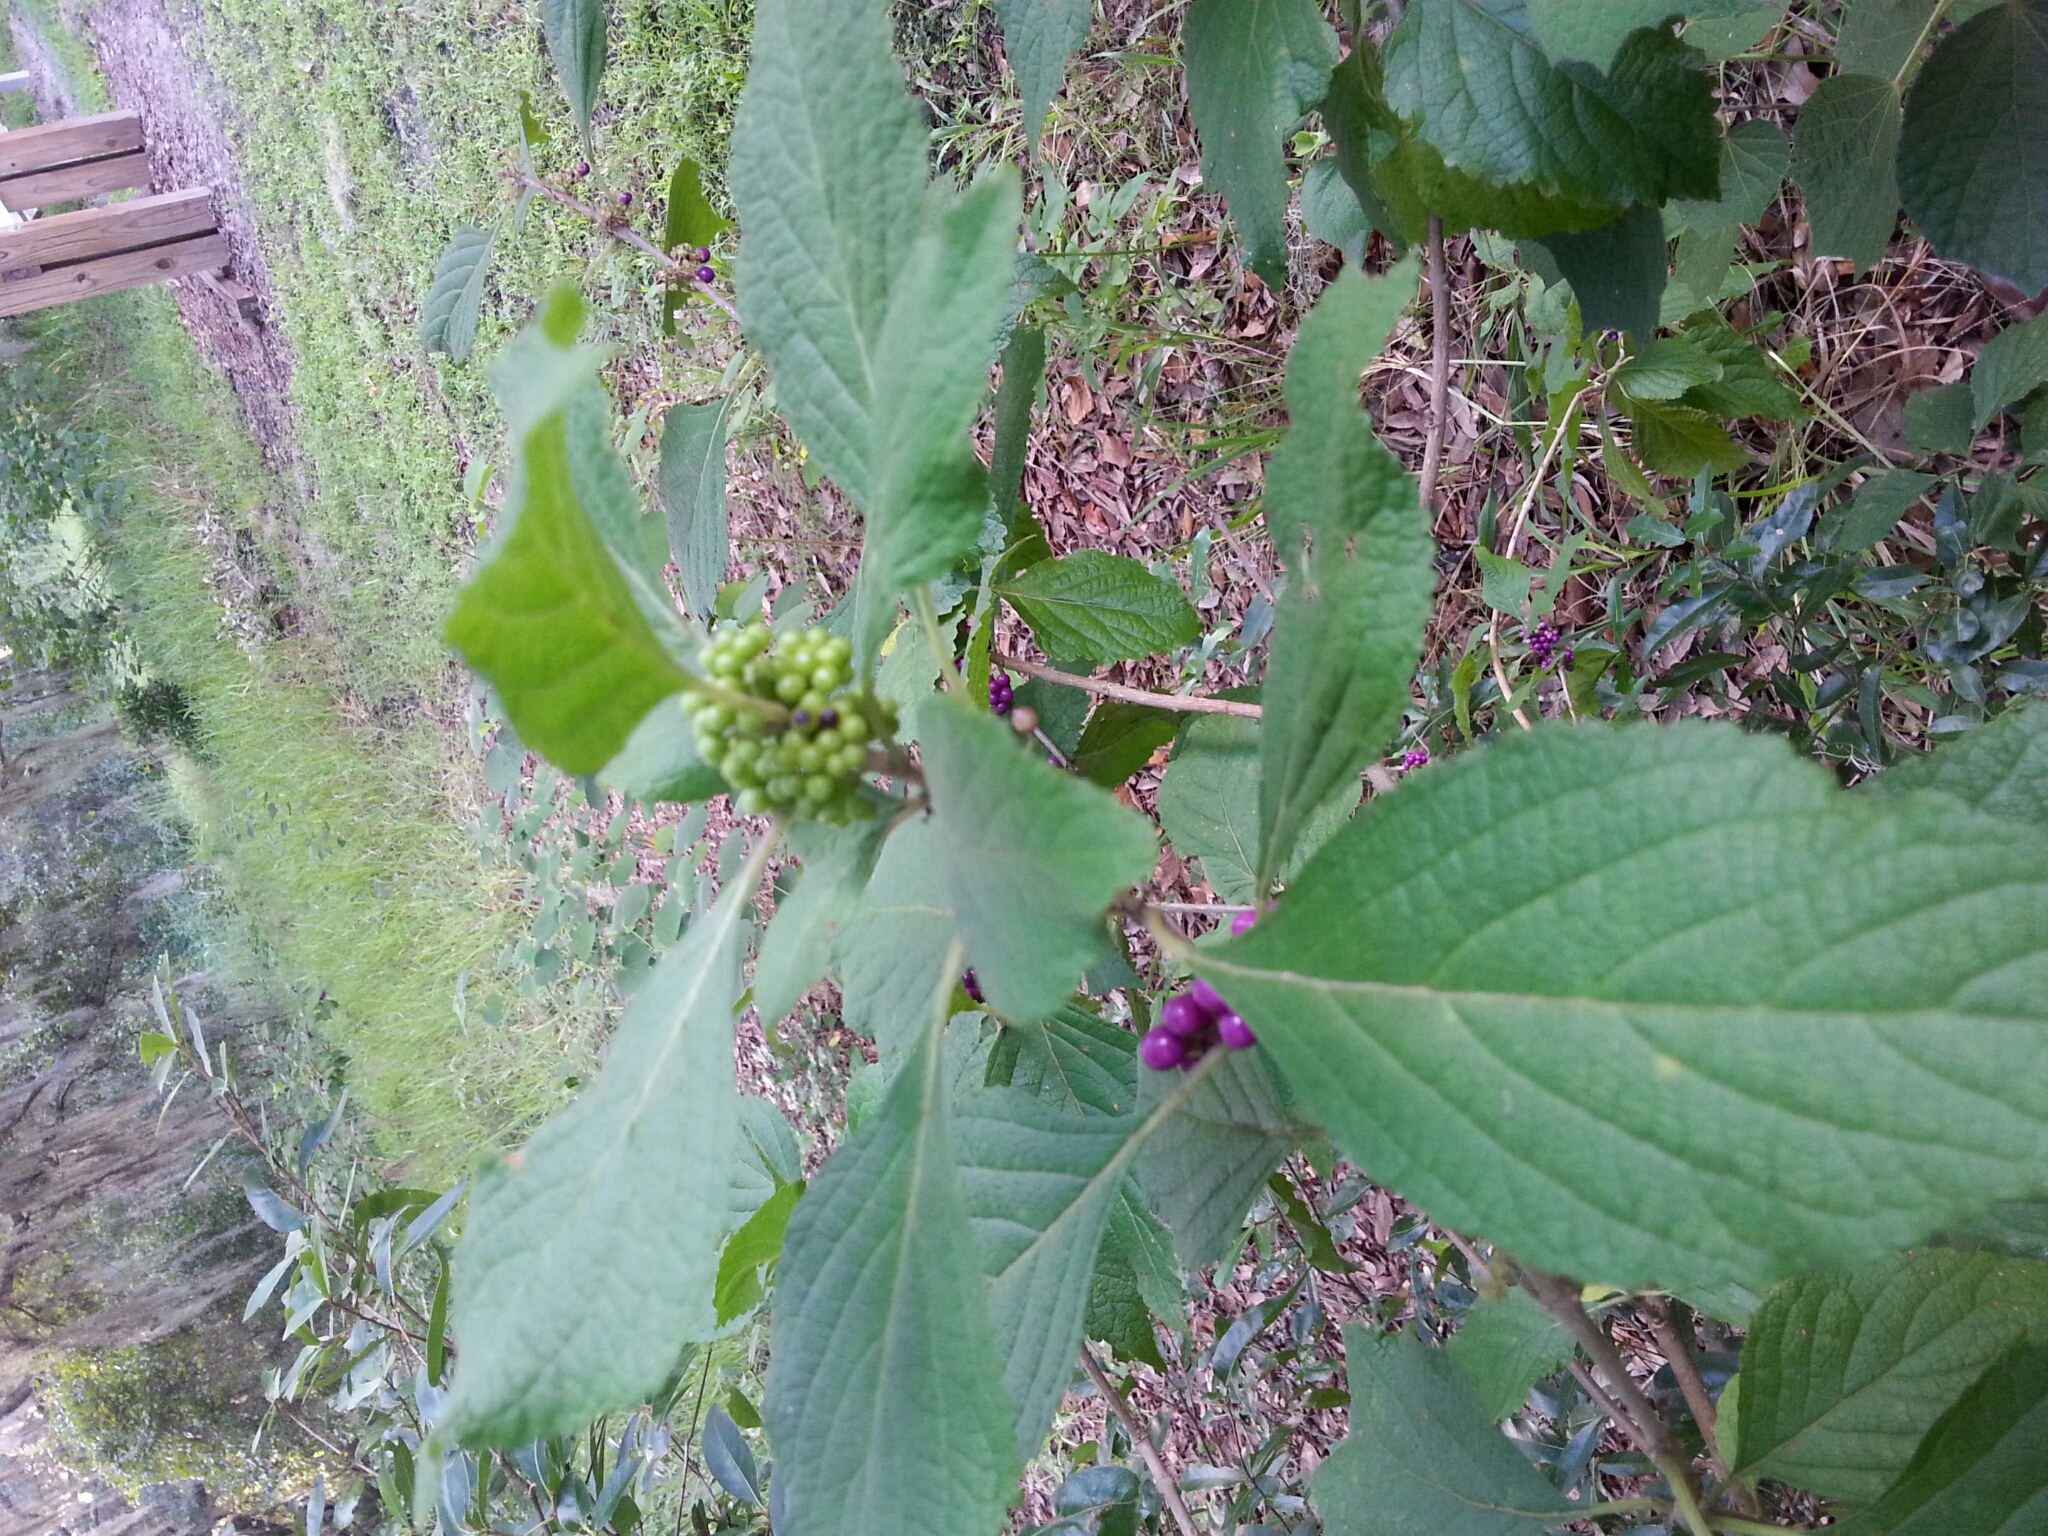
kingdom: Plantae
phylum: Tracheophyta
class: Magnoliopsida
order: Lamiales
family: Lamiaceae
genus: Callicarpa
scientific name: Callicarpa americana
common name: American beautyberry
